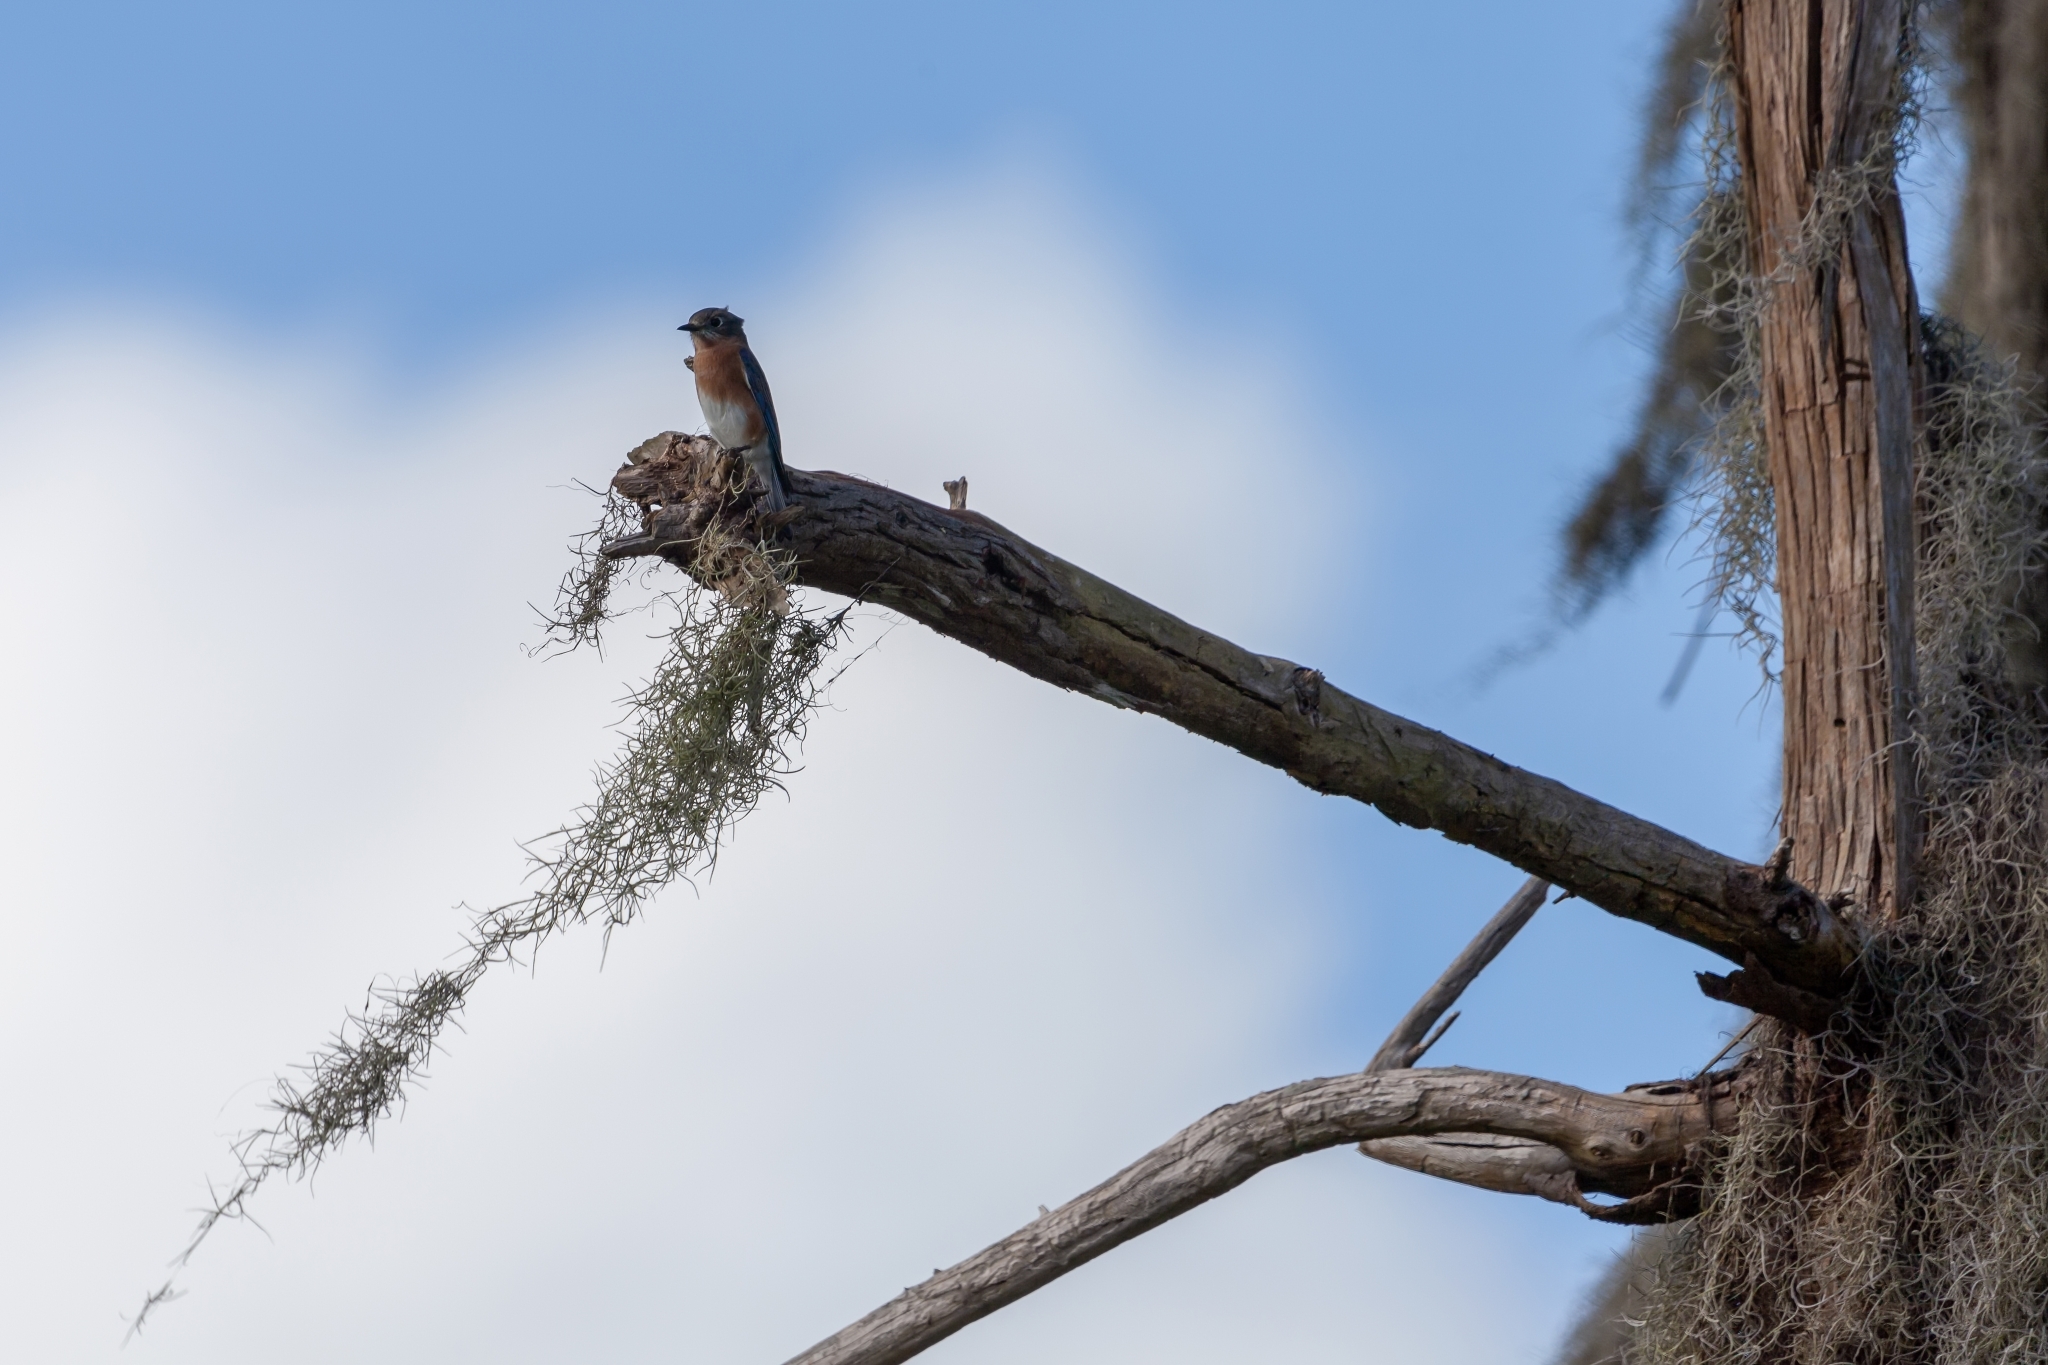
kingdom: Animalia
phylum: Chordata
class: Aves
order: Passeriformes
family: Turdidae
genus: Sialia
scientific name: Sialia sialis
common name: Eastern bluebird
